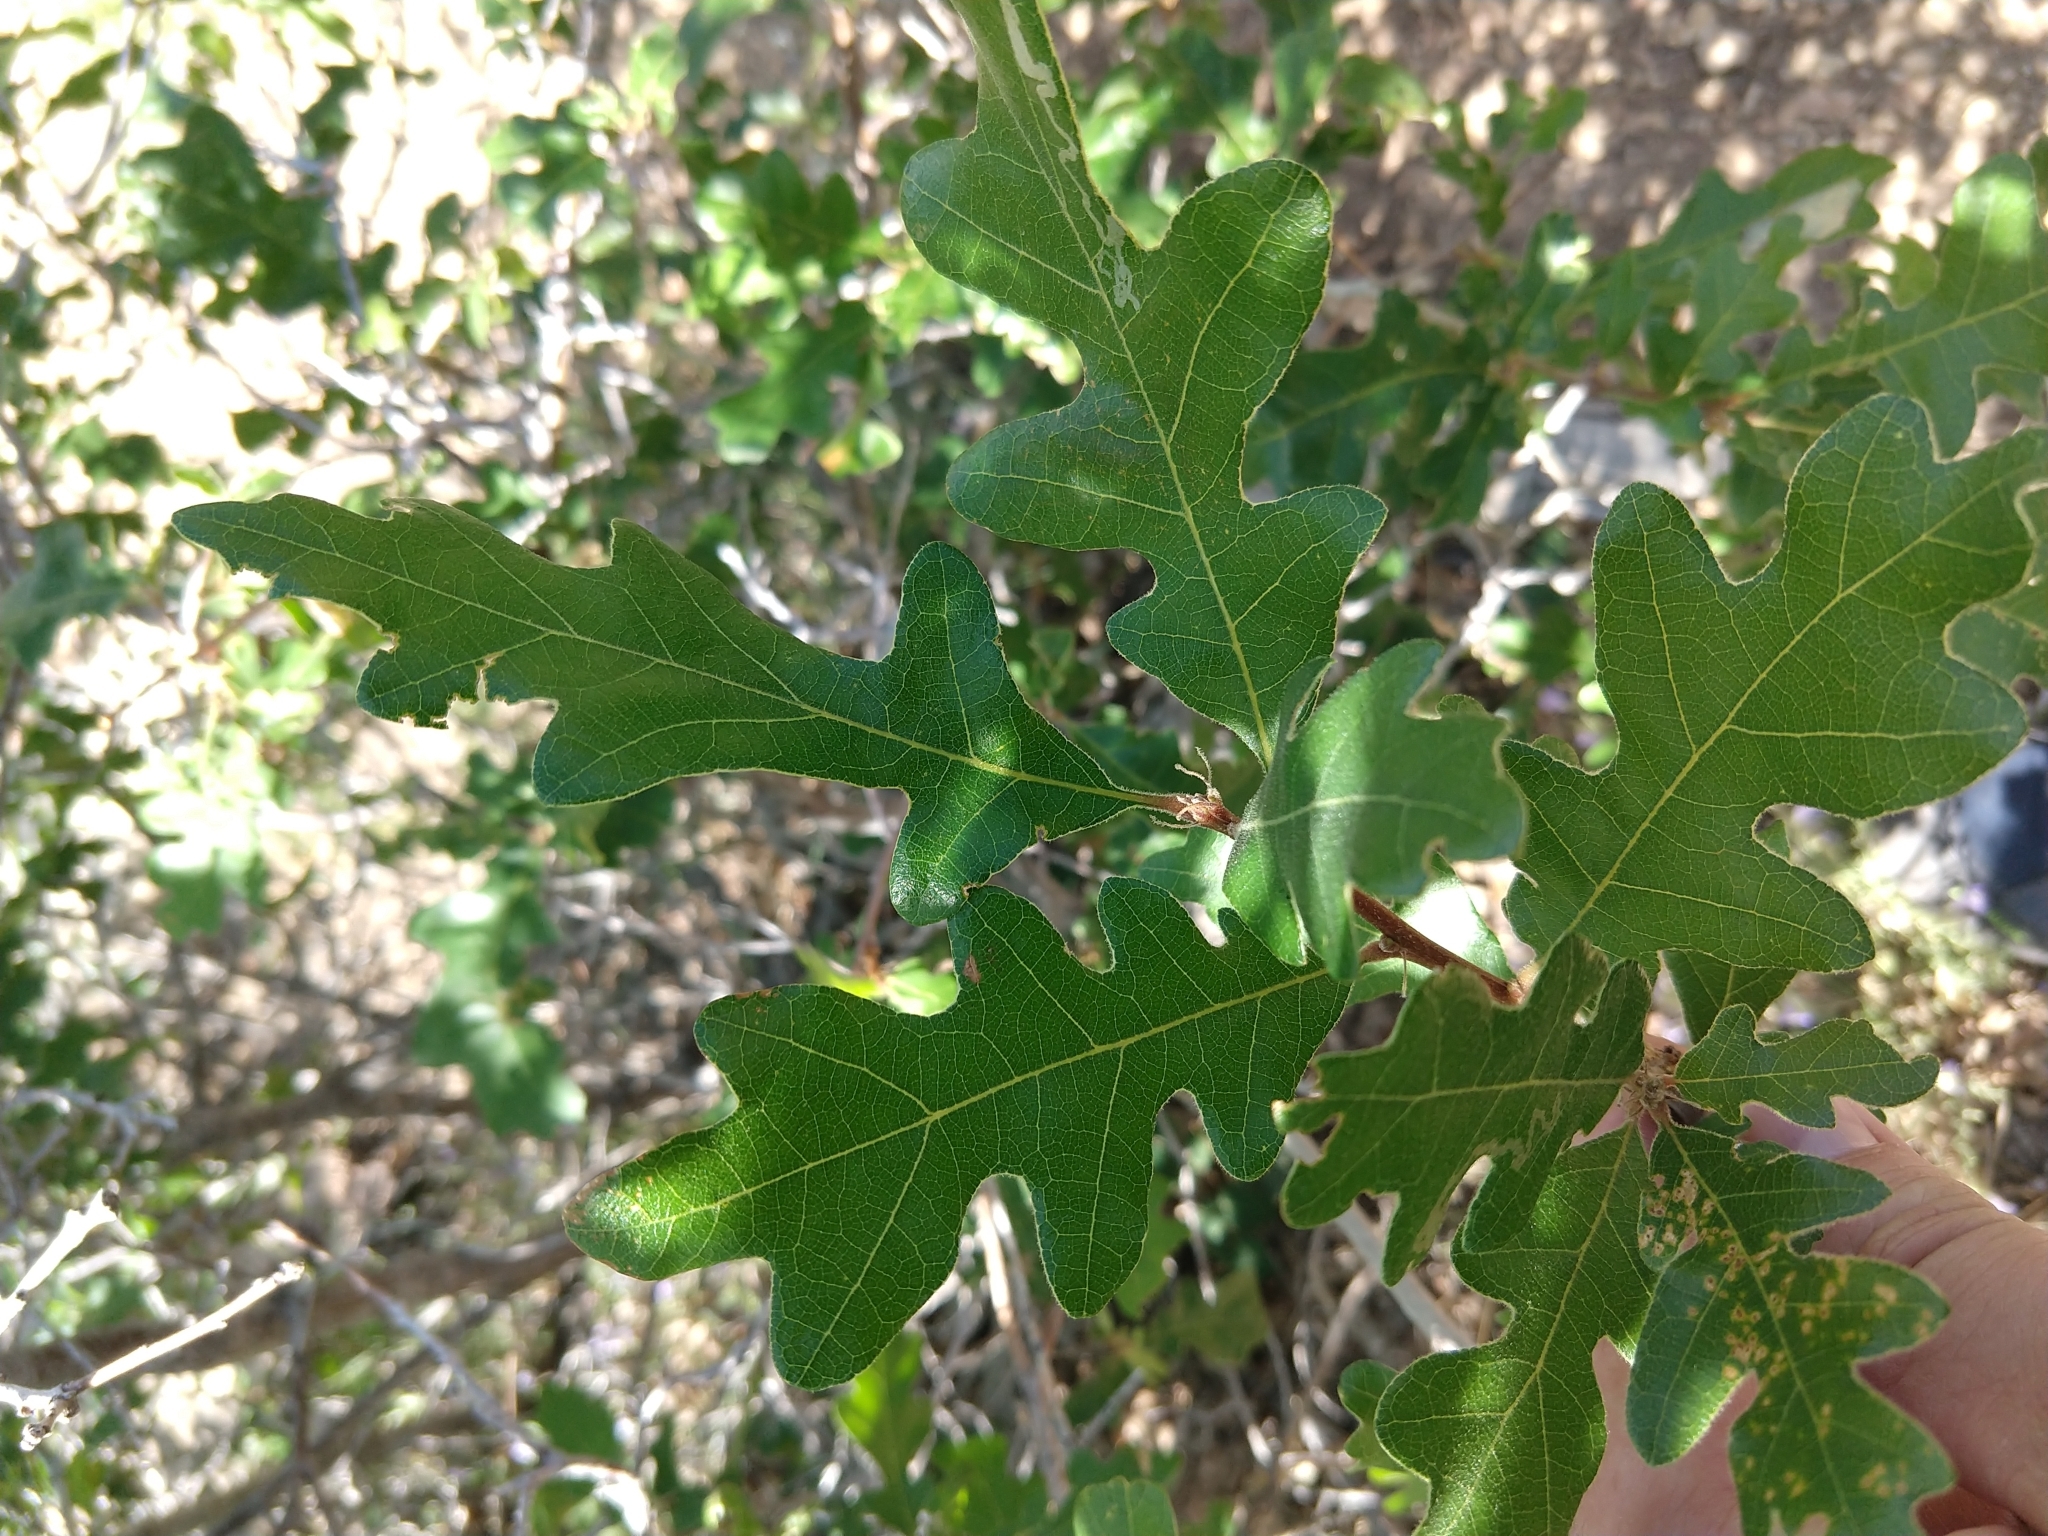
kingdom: Plantae
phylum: Tracheophyta
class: Magnoliopsida
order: Fagales
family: Fagaceae
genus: Quercus
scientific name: Quercus gambelii
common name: Gambel oak
